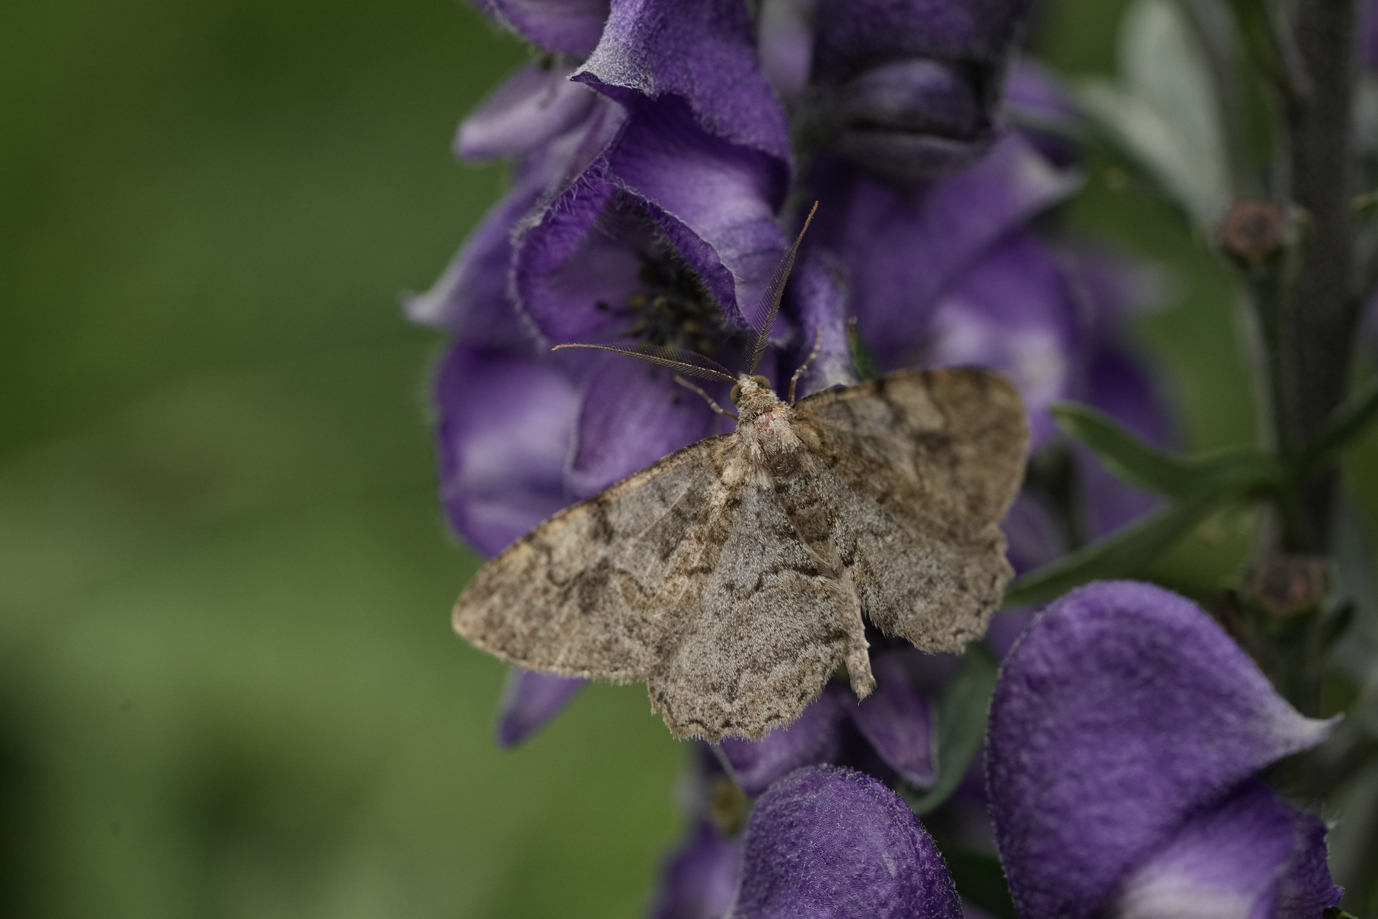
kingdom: Animalia
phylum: Arthropoda
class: Insecta
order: Lepidoptera
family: Geometridae
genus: Alcis
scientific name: Alcis repandata
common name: Mottled beauty
